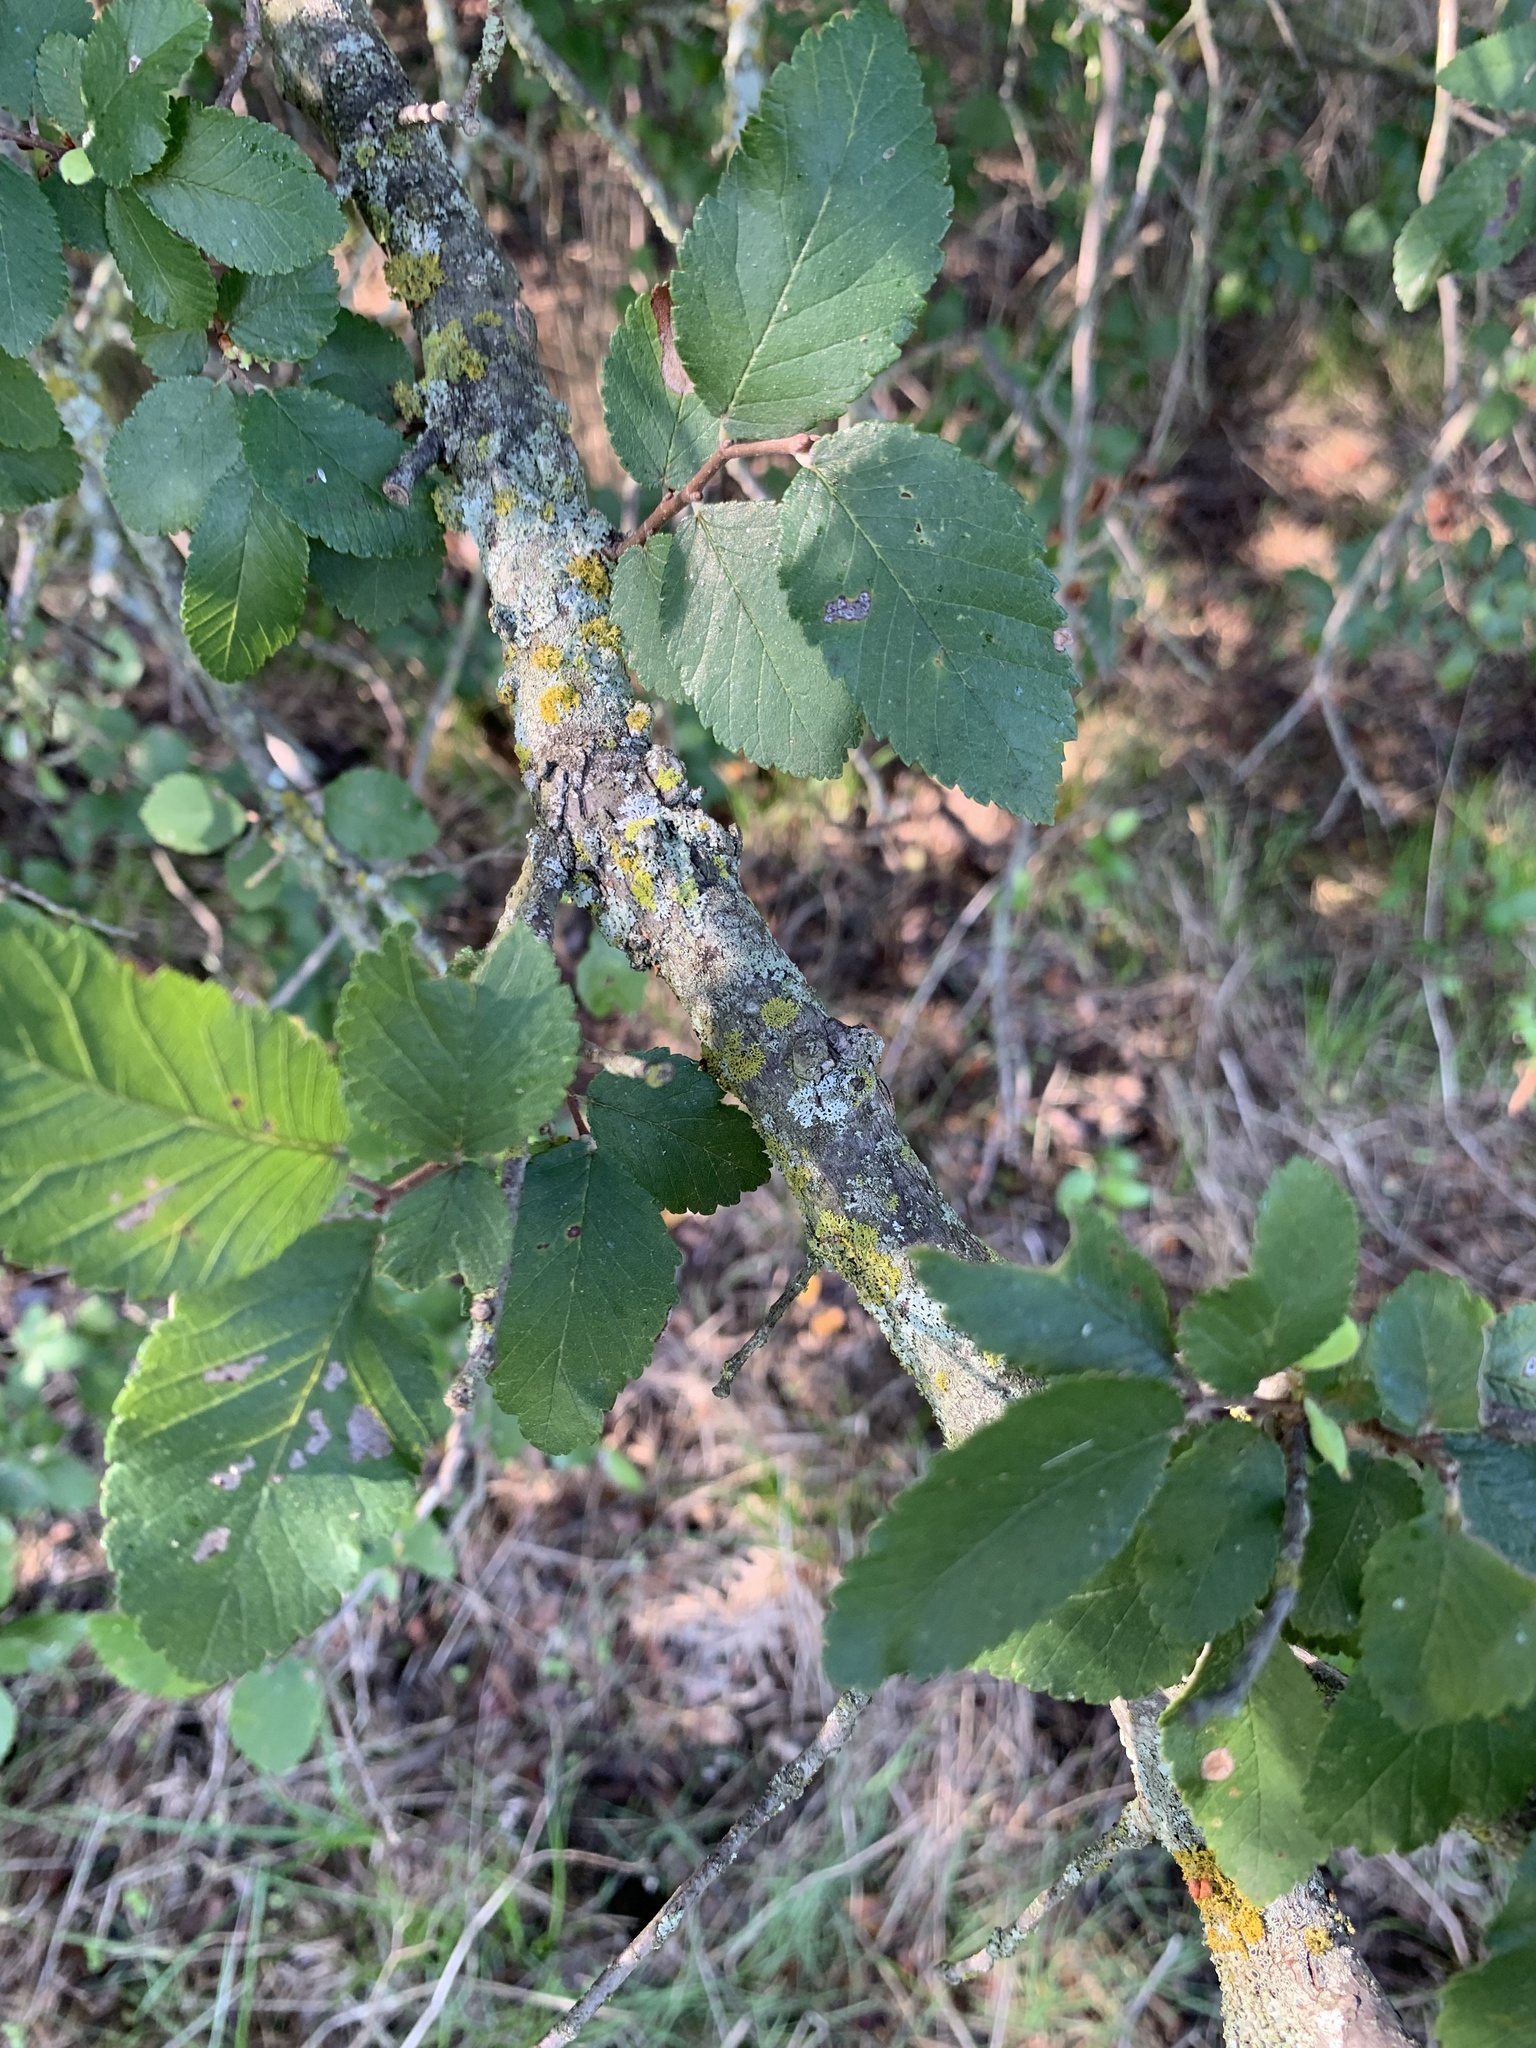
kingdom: Plantae
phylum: Tracheophyta
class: Magnoliopsida
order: Rosales
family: Ulmaceae
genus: Ulmus
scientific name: Ulmus crassifolia
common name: Basket elm
